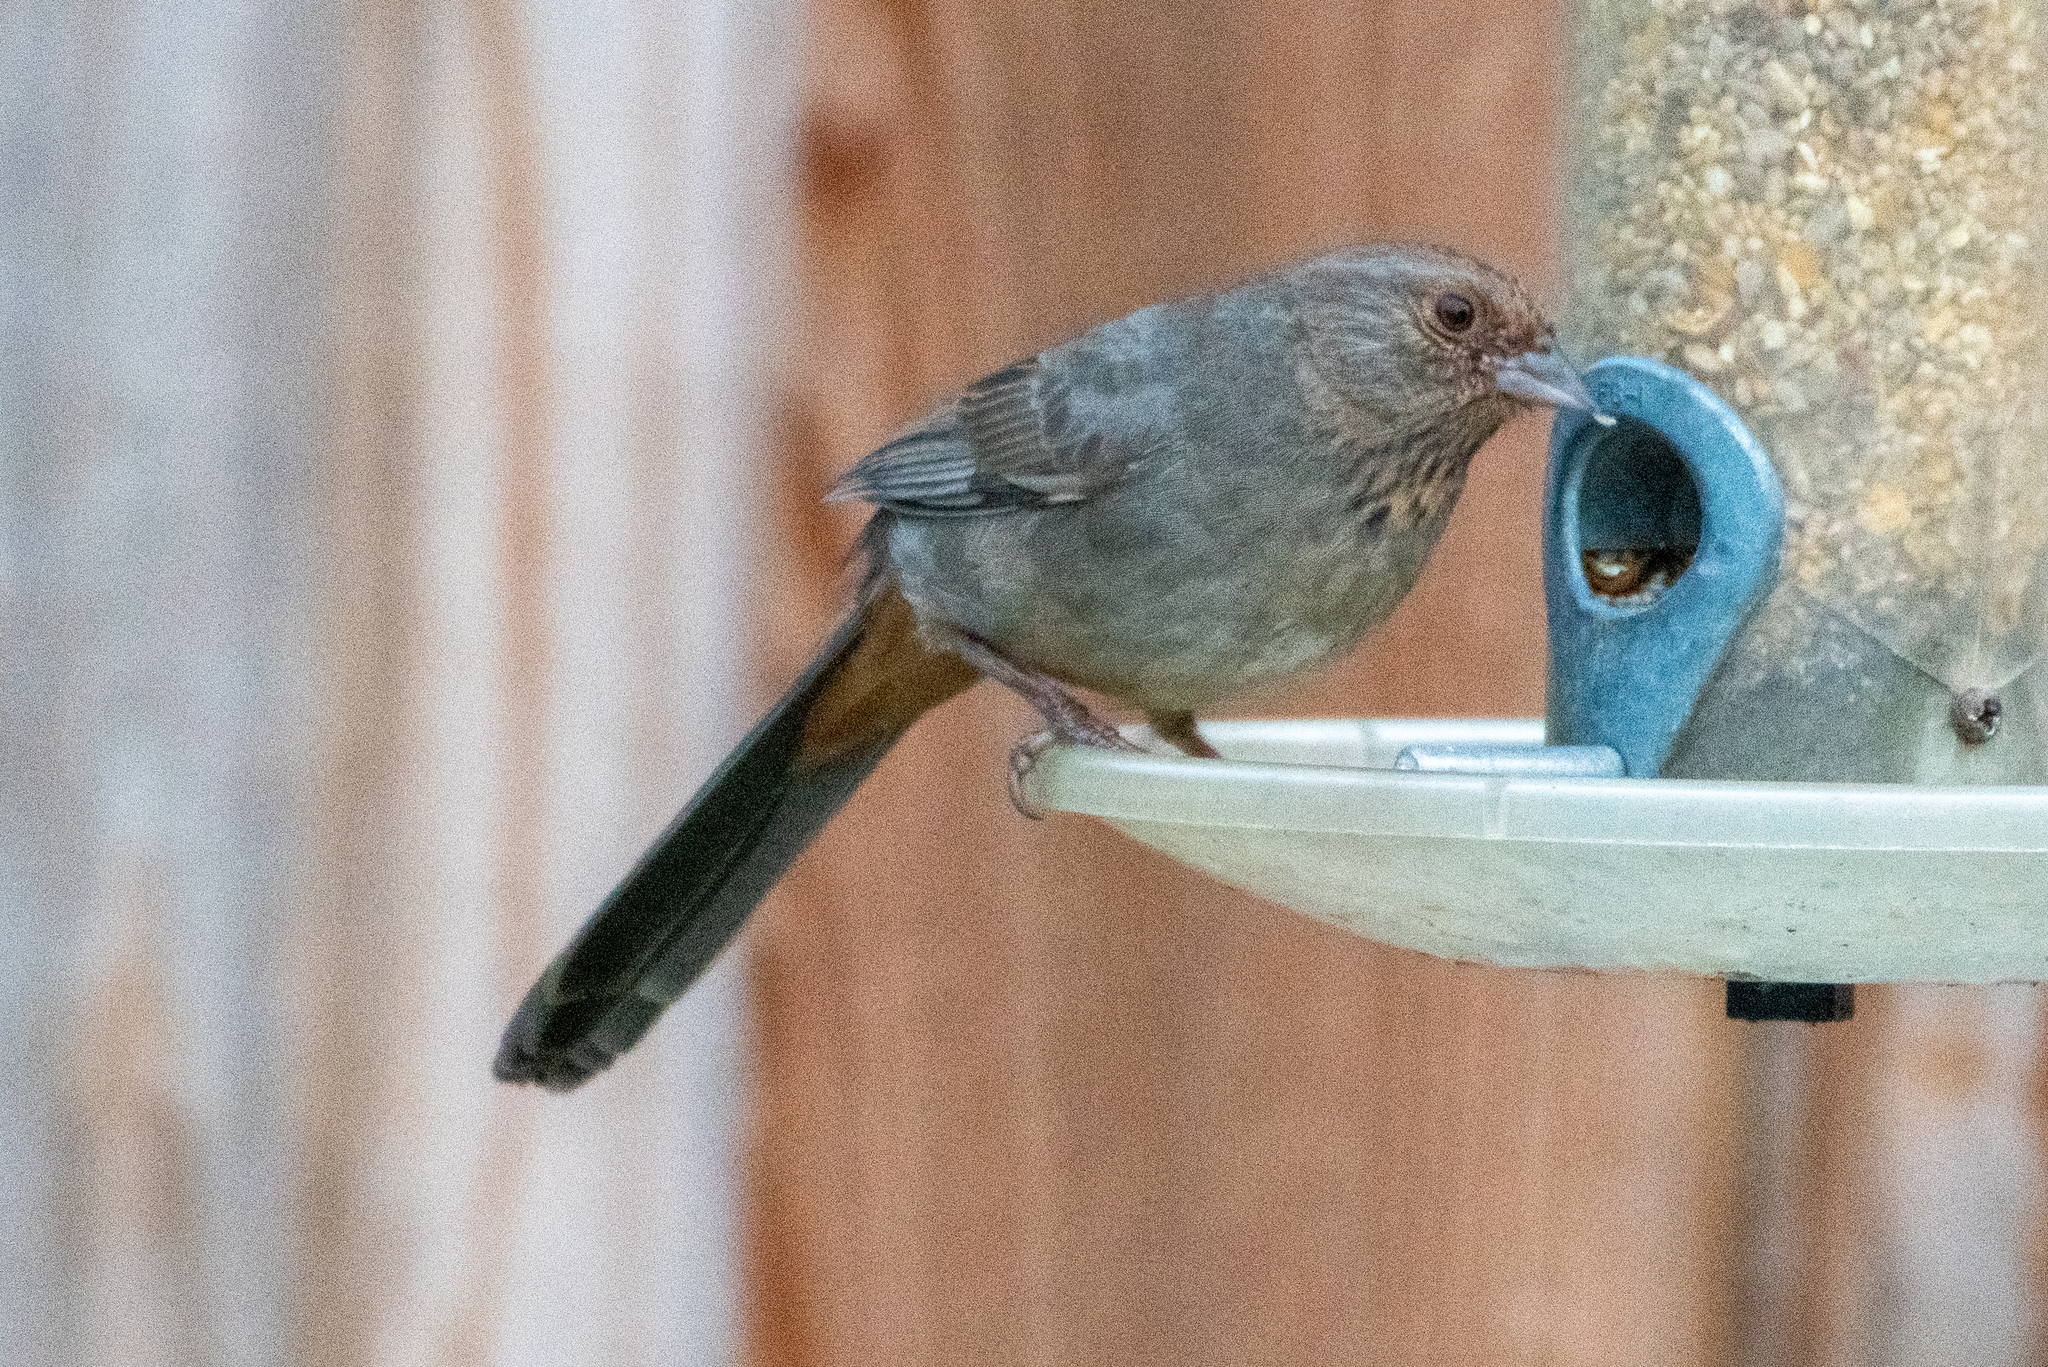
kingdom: Animalia
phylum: Chordata
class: Aves
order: Passeriformes
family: Passerellidae
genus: Melozone
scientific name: Melozone crissalis
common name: California towhee
